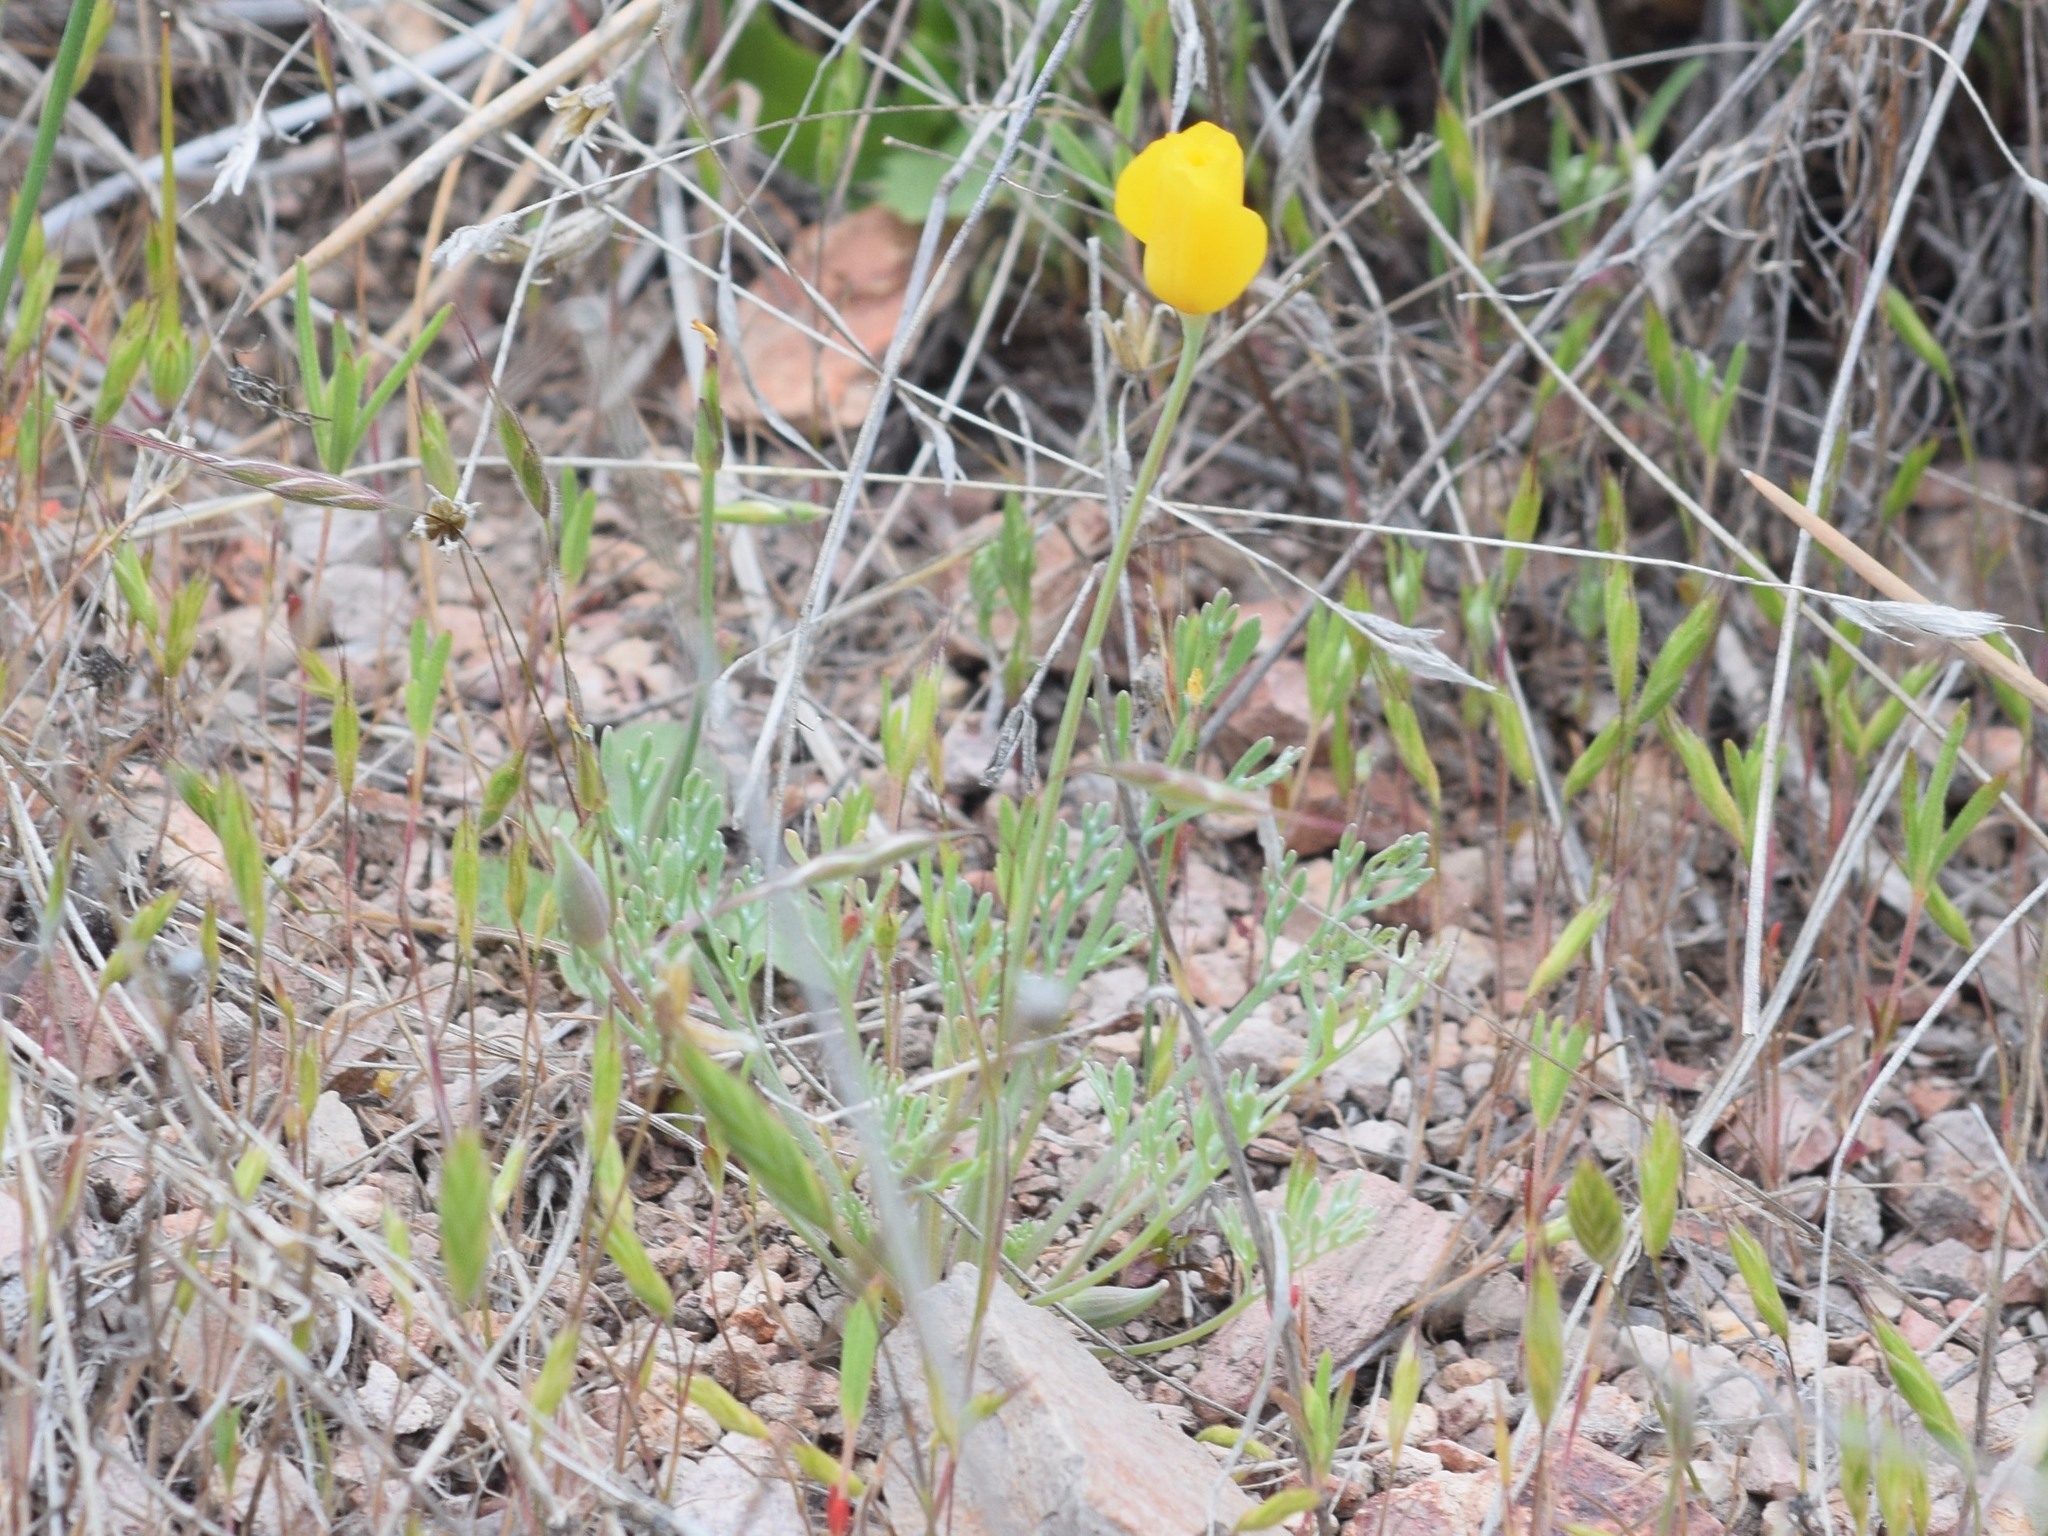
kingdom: Plantae
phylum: Tracheophyta
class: Magnoliopsida
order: Ranunculales
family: Papaveraceae
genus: Eschscholzia
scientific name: Eschscholzia caespitosa
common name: Tufted california-poppy
